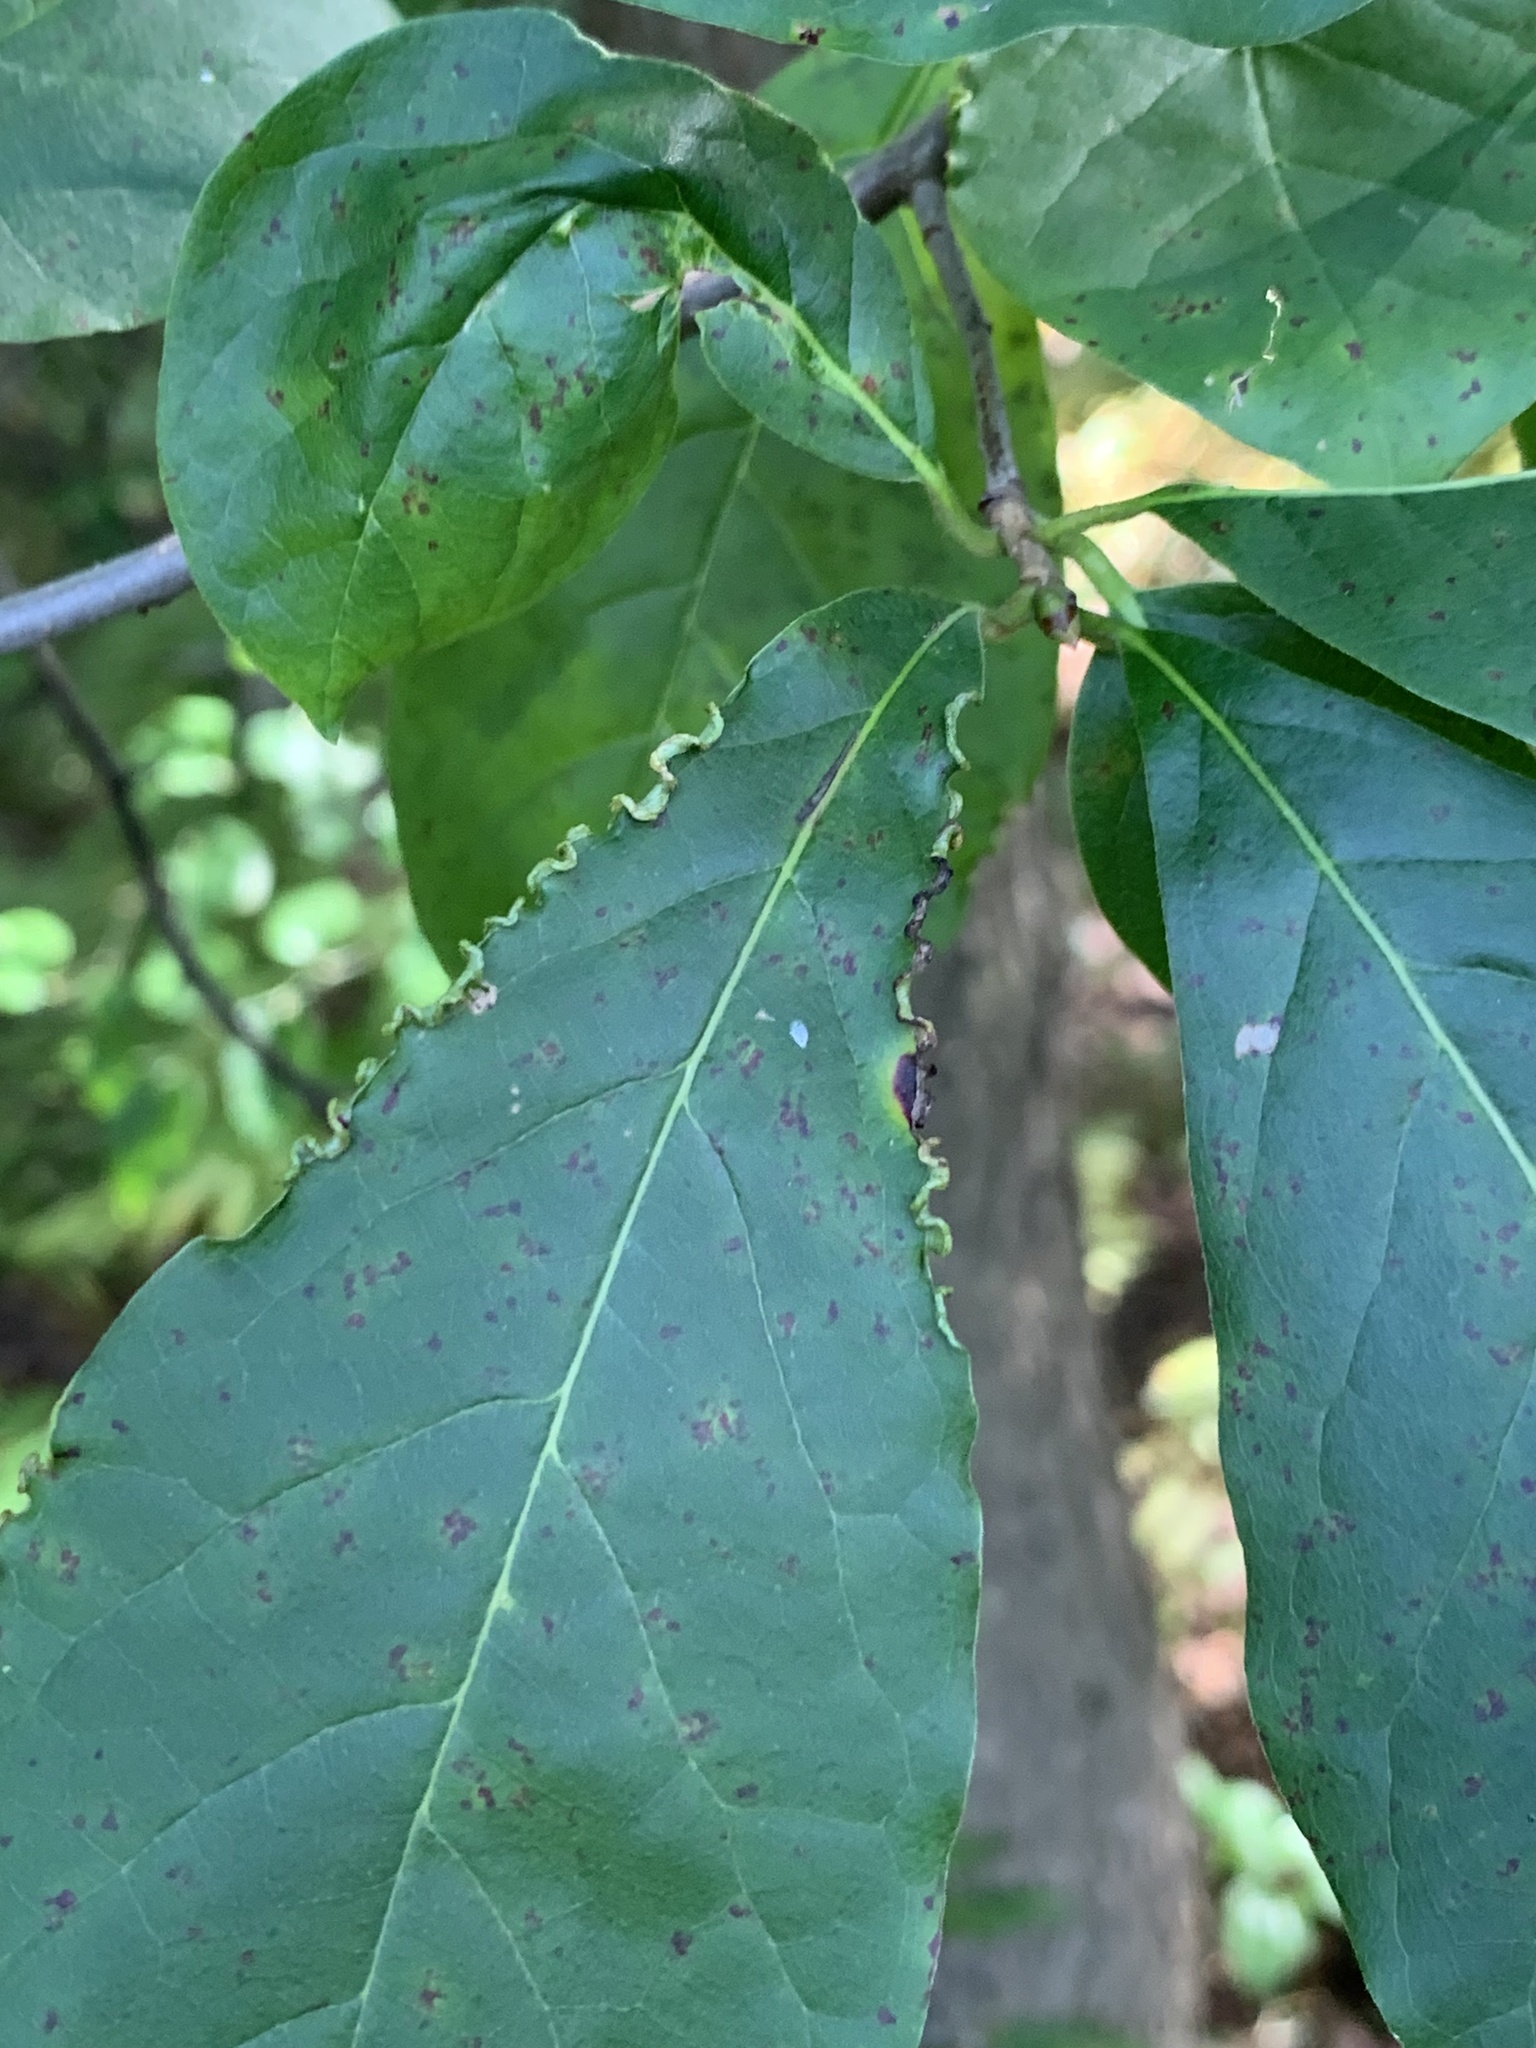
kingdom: Animalia
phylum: Arthropoda
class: Arachnida
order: Trombidiformes
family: Eriophyidae
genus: Aceria
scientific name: Aceria
